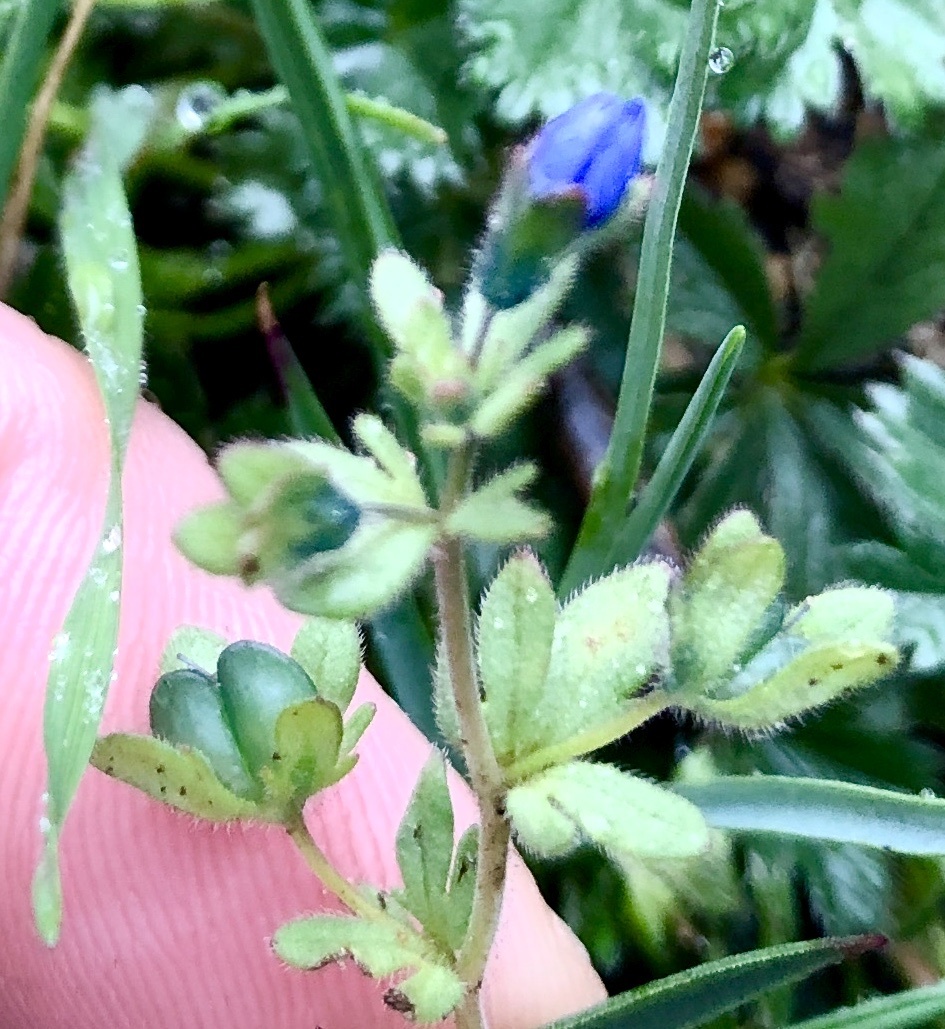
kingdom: Plantae
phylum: Tracheophyta
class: Magnoliopsida
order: Lamiales
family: Plantaginaceae
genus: Veronica
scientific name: Veronica triphyllos
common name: Fingered speedwell
